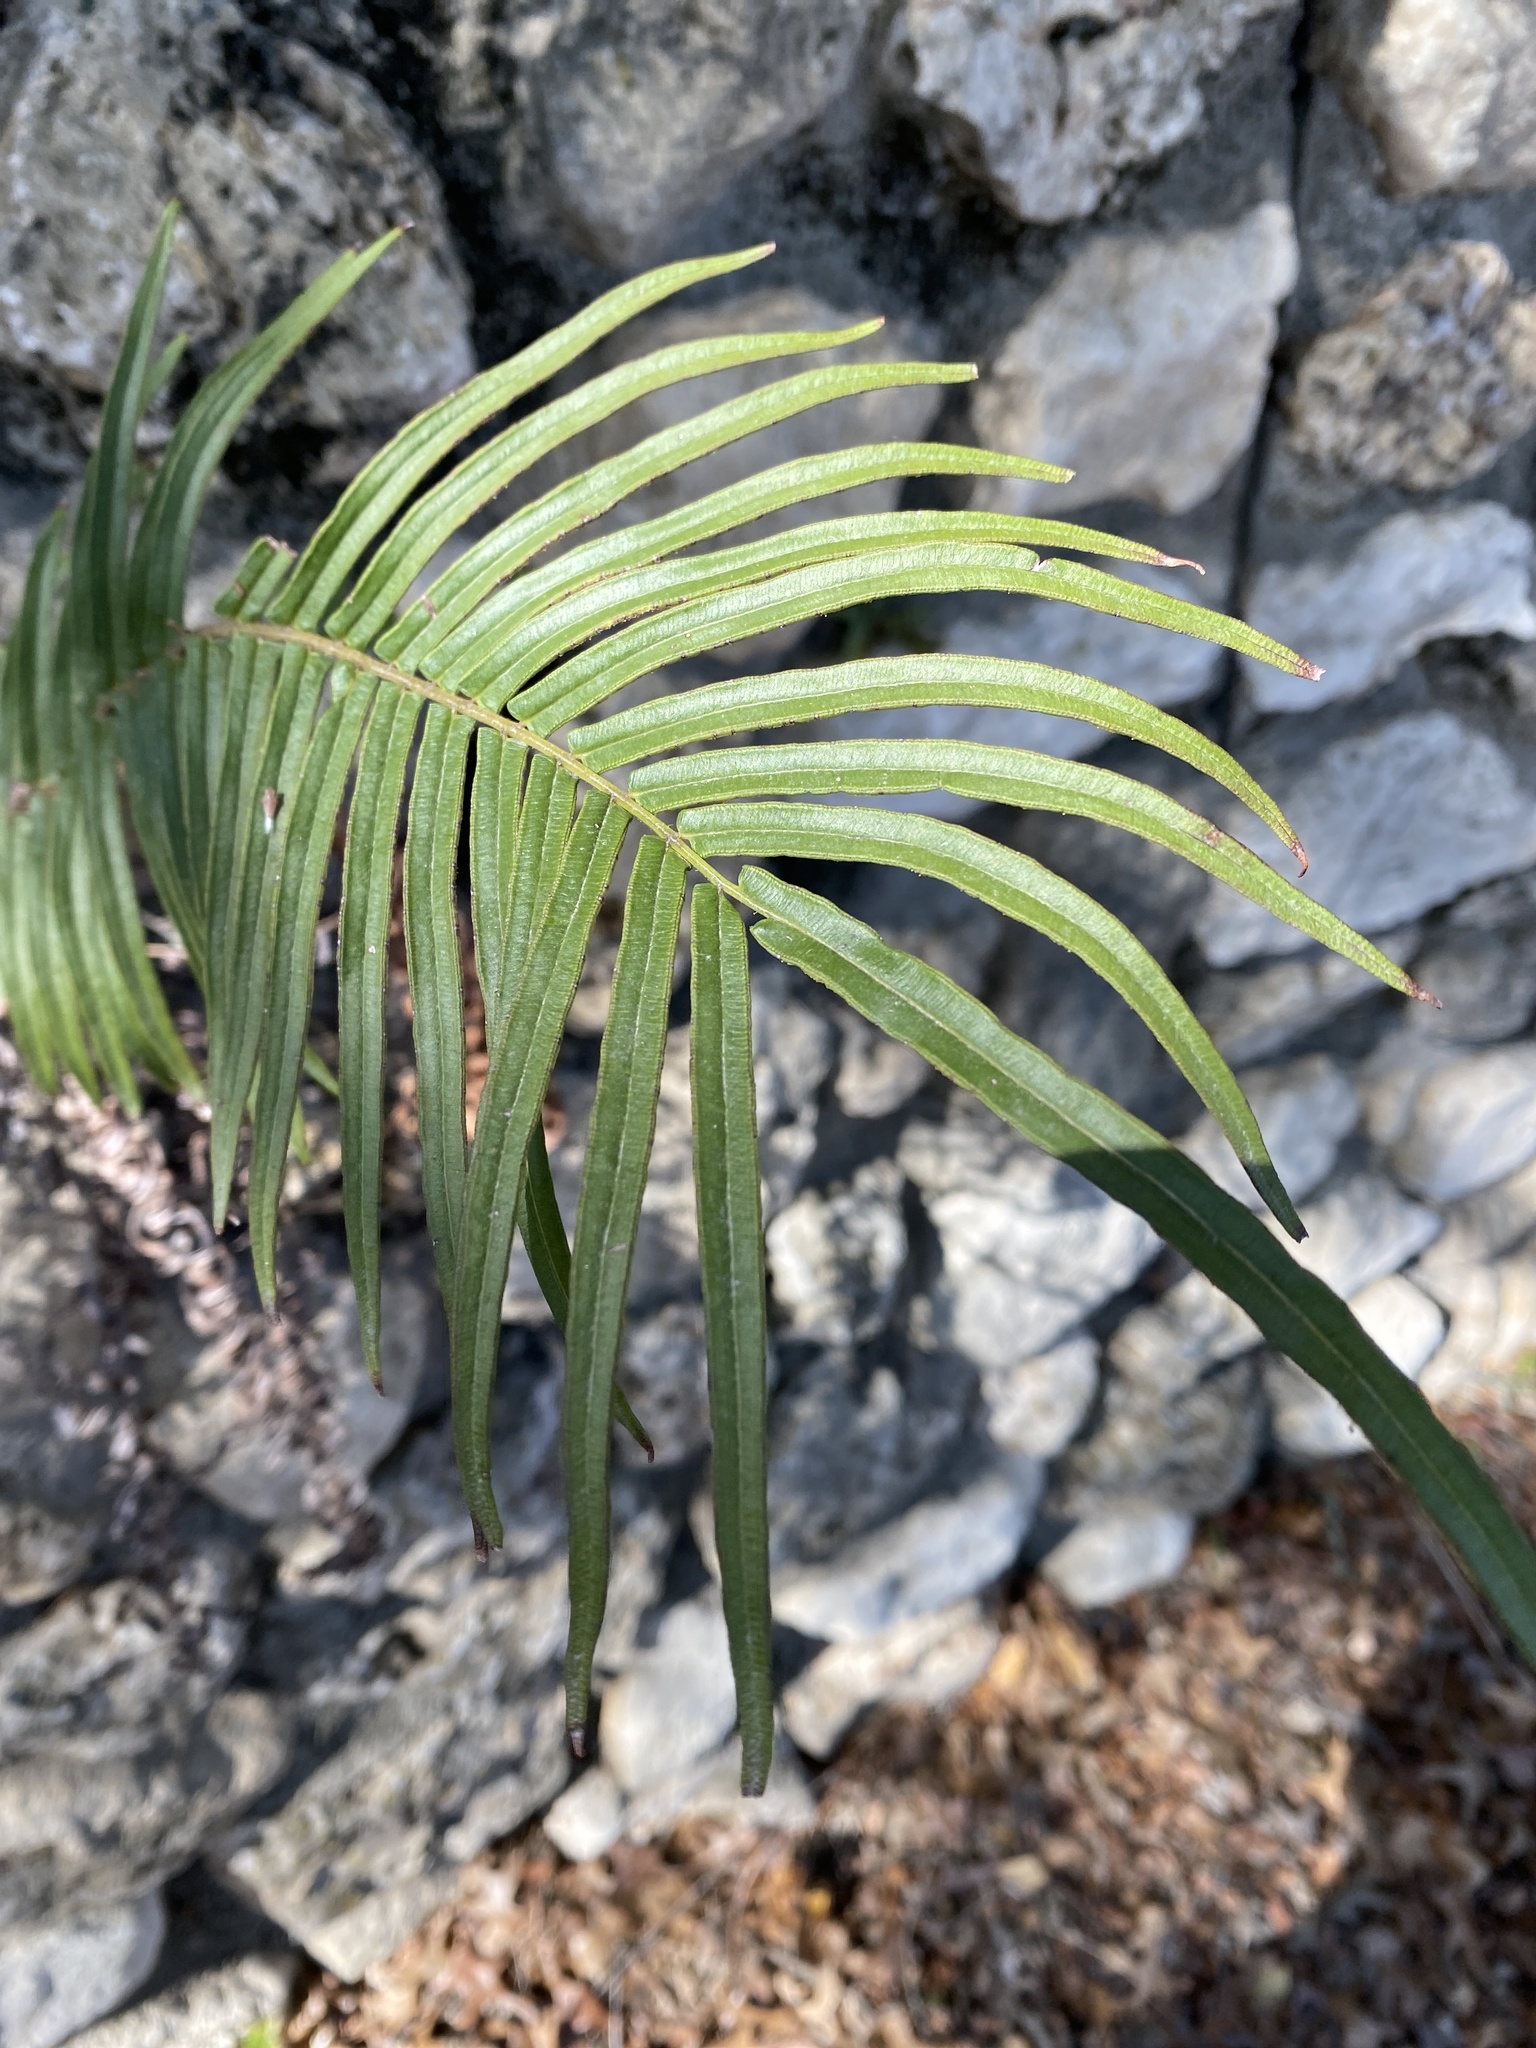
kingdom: Plantae
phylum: Tracheophyta
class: Polypodiopsida
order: Polypodiales
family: Pteridaceae
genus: Pteris
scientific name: Pteris vittata
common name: Ladder brake
